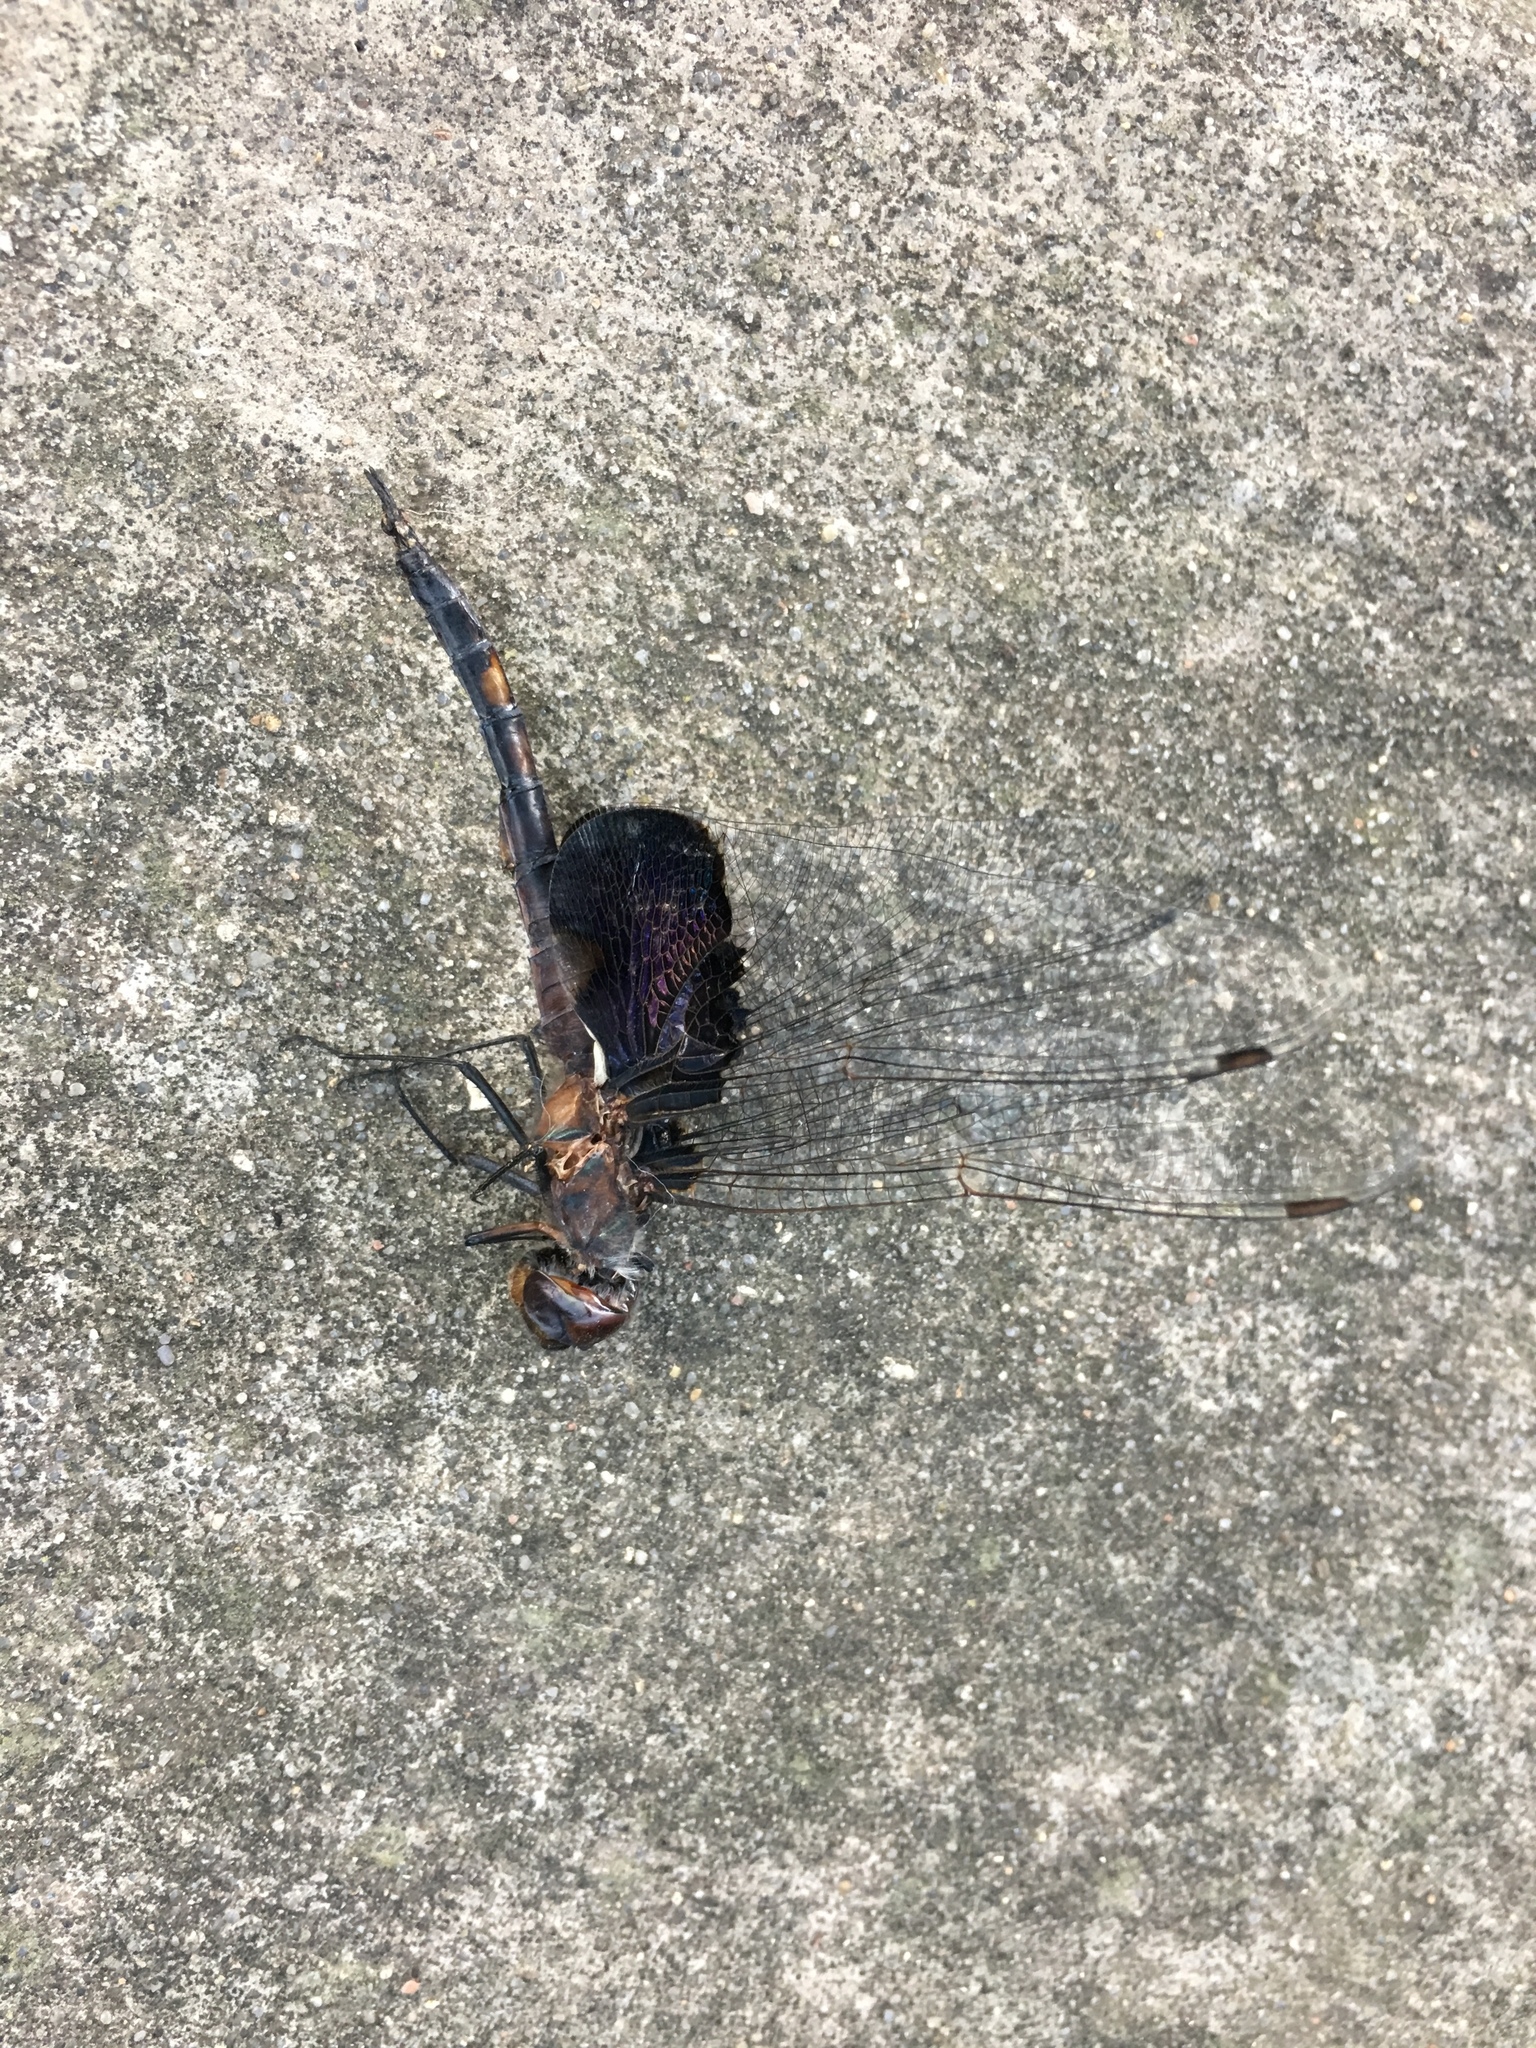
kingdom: Animalia
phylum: Arthropoda
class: Insecta
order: Odonata
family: Libellulidae
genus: Tramea
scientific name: Tramea lacerata
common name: Black saddlebags
